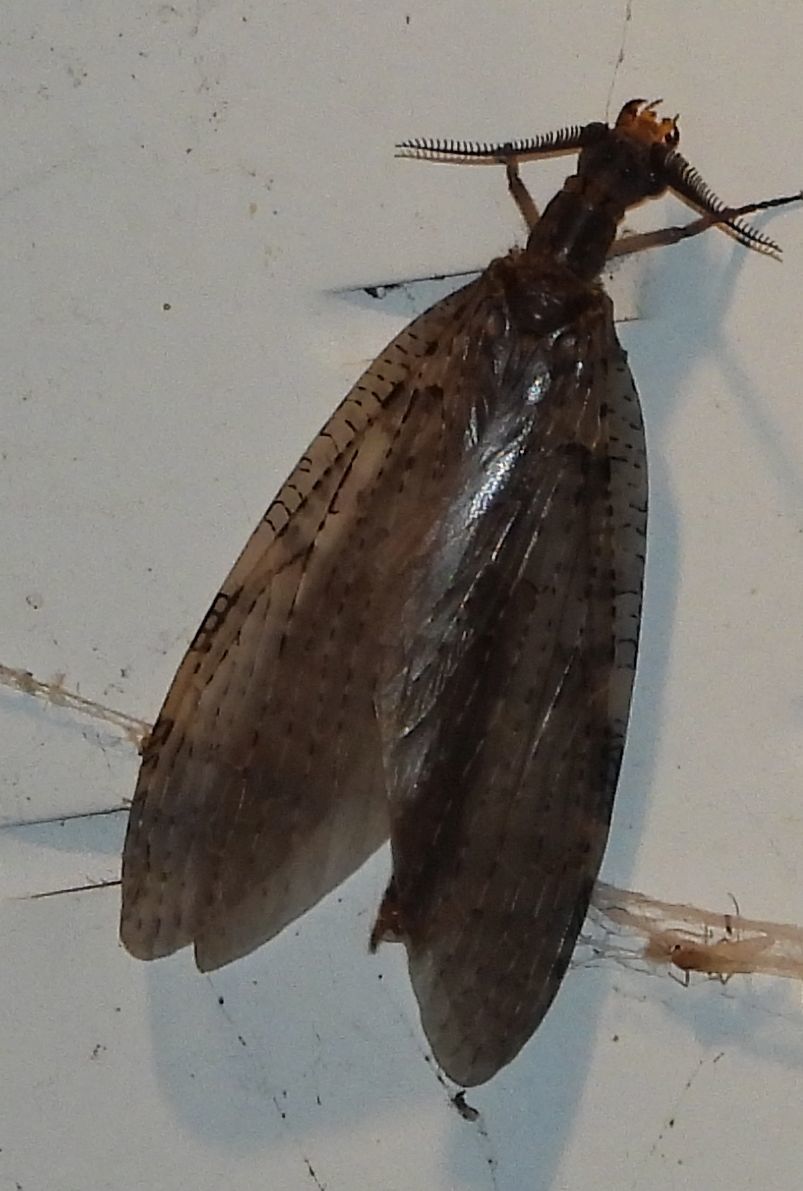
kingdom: Animalia
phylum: Arthropoda
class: Insecta
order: Megaloptera
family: Corydalidae
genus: Chauliodes
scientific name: Chauliodes pectinicornis
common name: Summer fishfly
